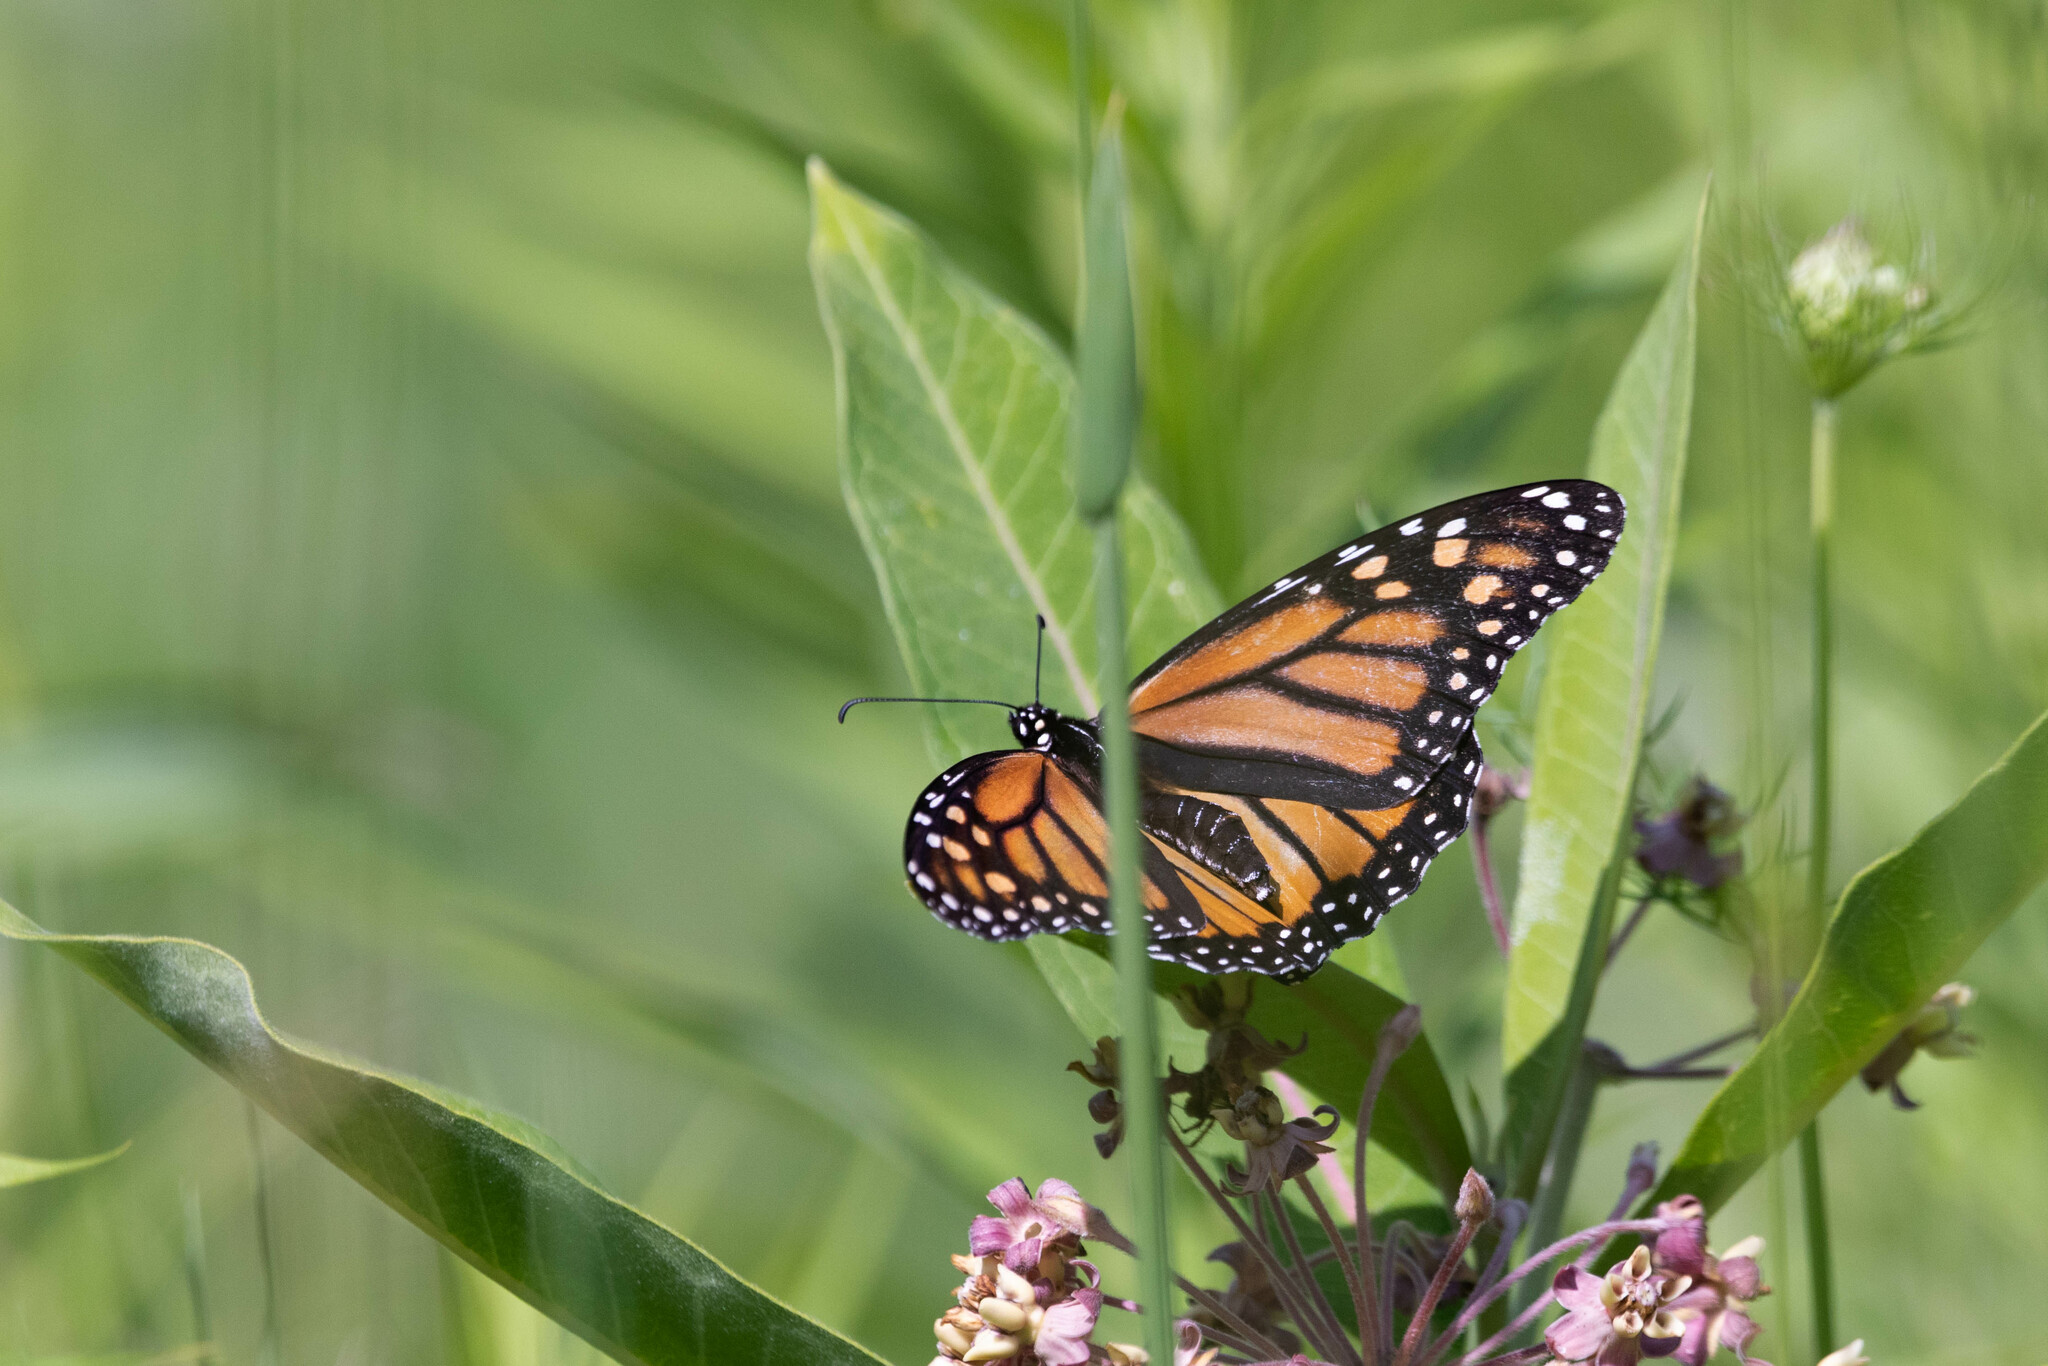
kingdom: Animalia
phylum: Arthropoda
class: Insecta
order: Lepidoptera
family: Nymphalidae
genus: Danaus
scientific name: Danaus plexippus
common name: Monarch
